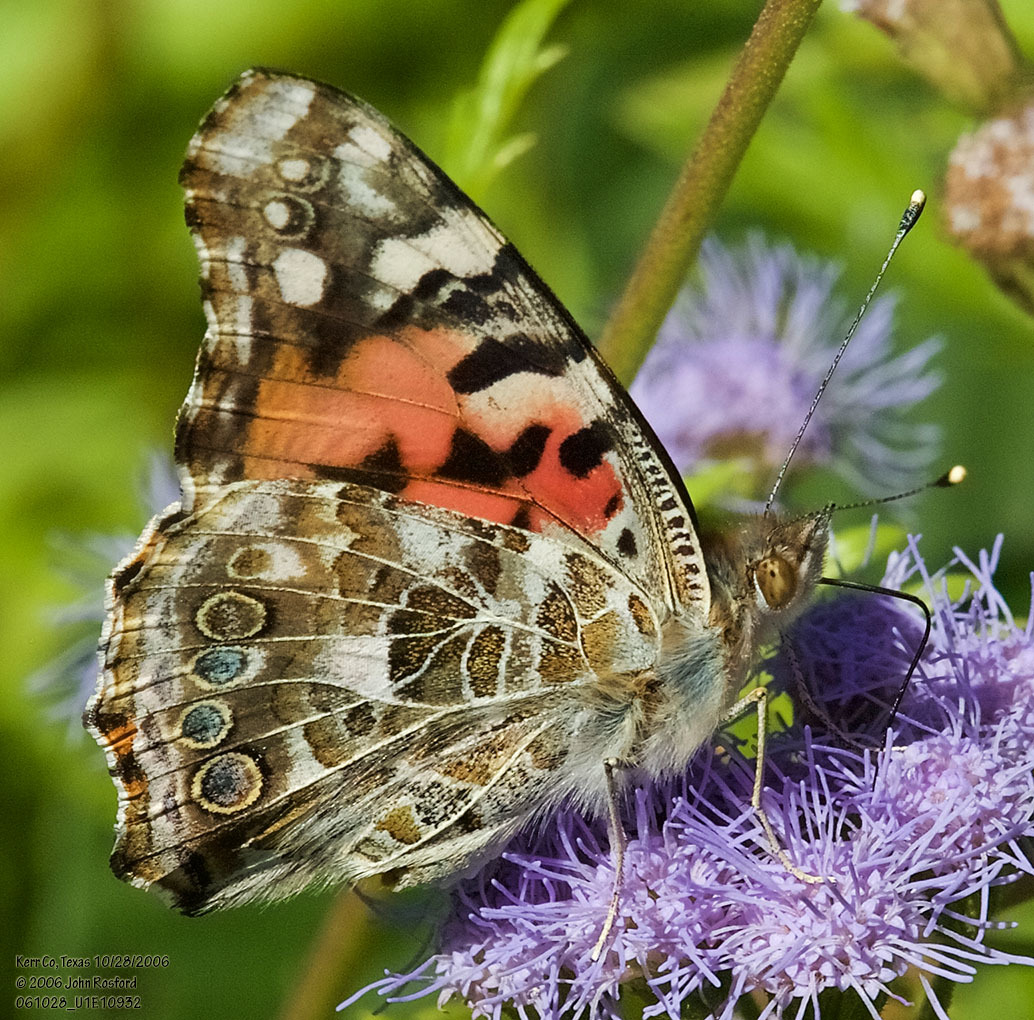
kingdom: Animalia
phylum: Arthropoda
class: Insecta
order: Lepidoptera
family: Nymphalidae
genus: Vanessa
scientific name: Vanessa cardui
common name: Painted lady
